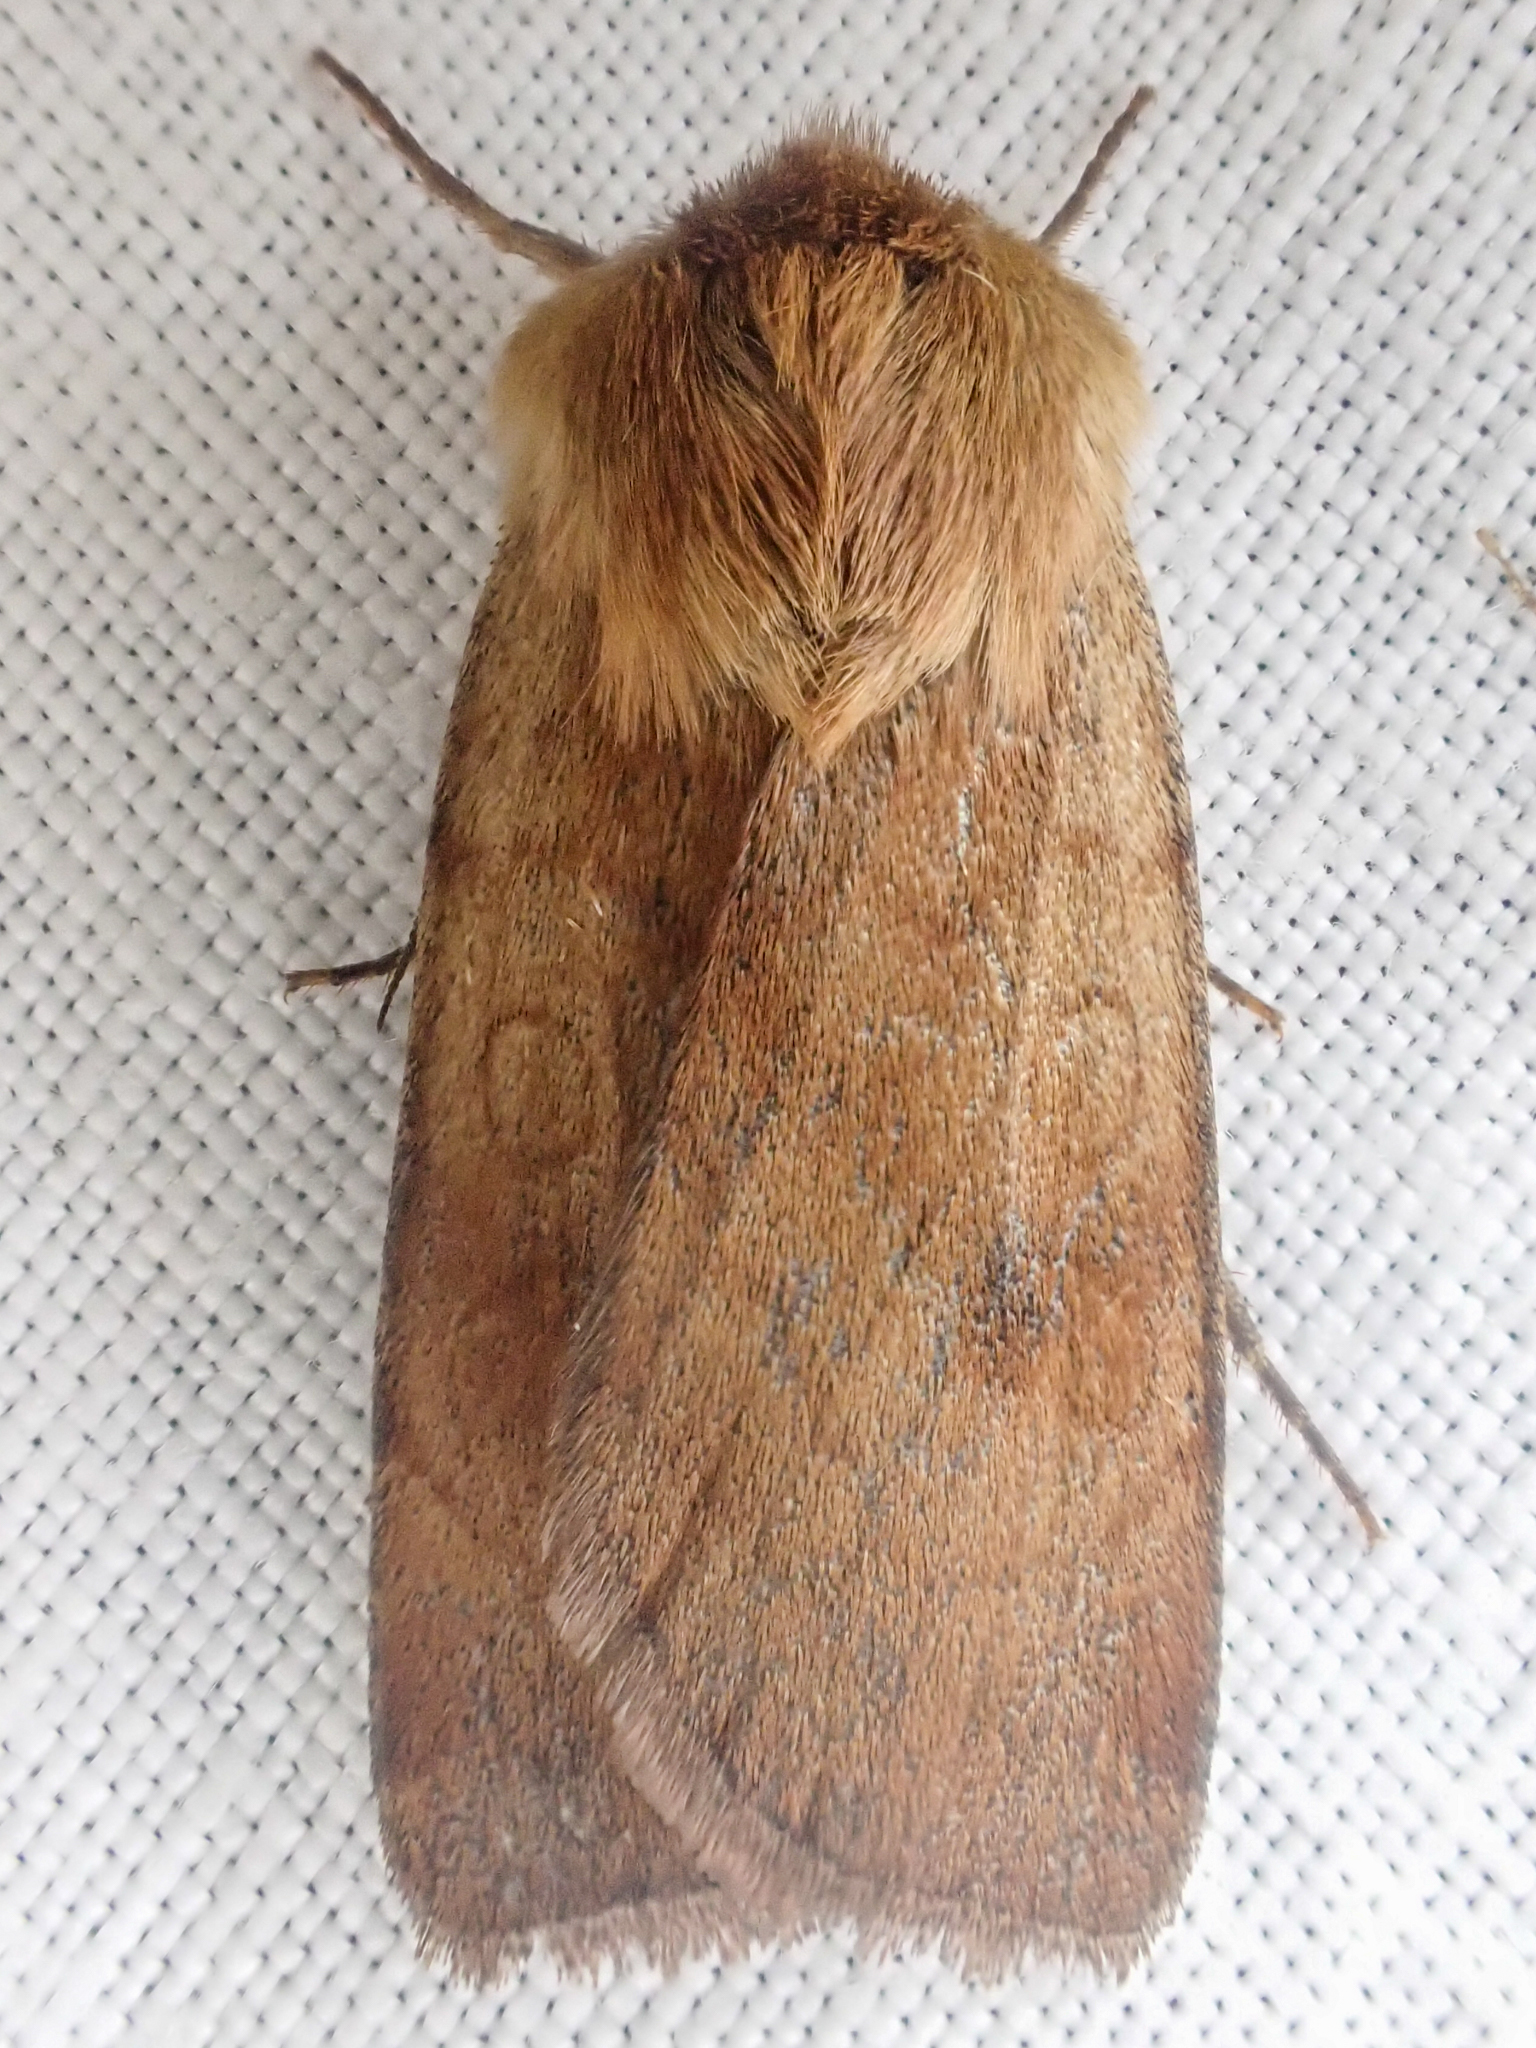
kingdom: Animalia
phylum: Arthropoda
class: Insecta
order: Lepidoptera
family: Noctuidae
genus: Paradiarsia
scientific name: Paradiarsia littoralis
